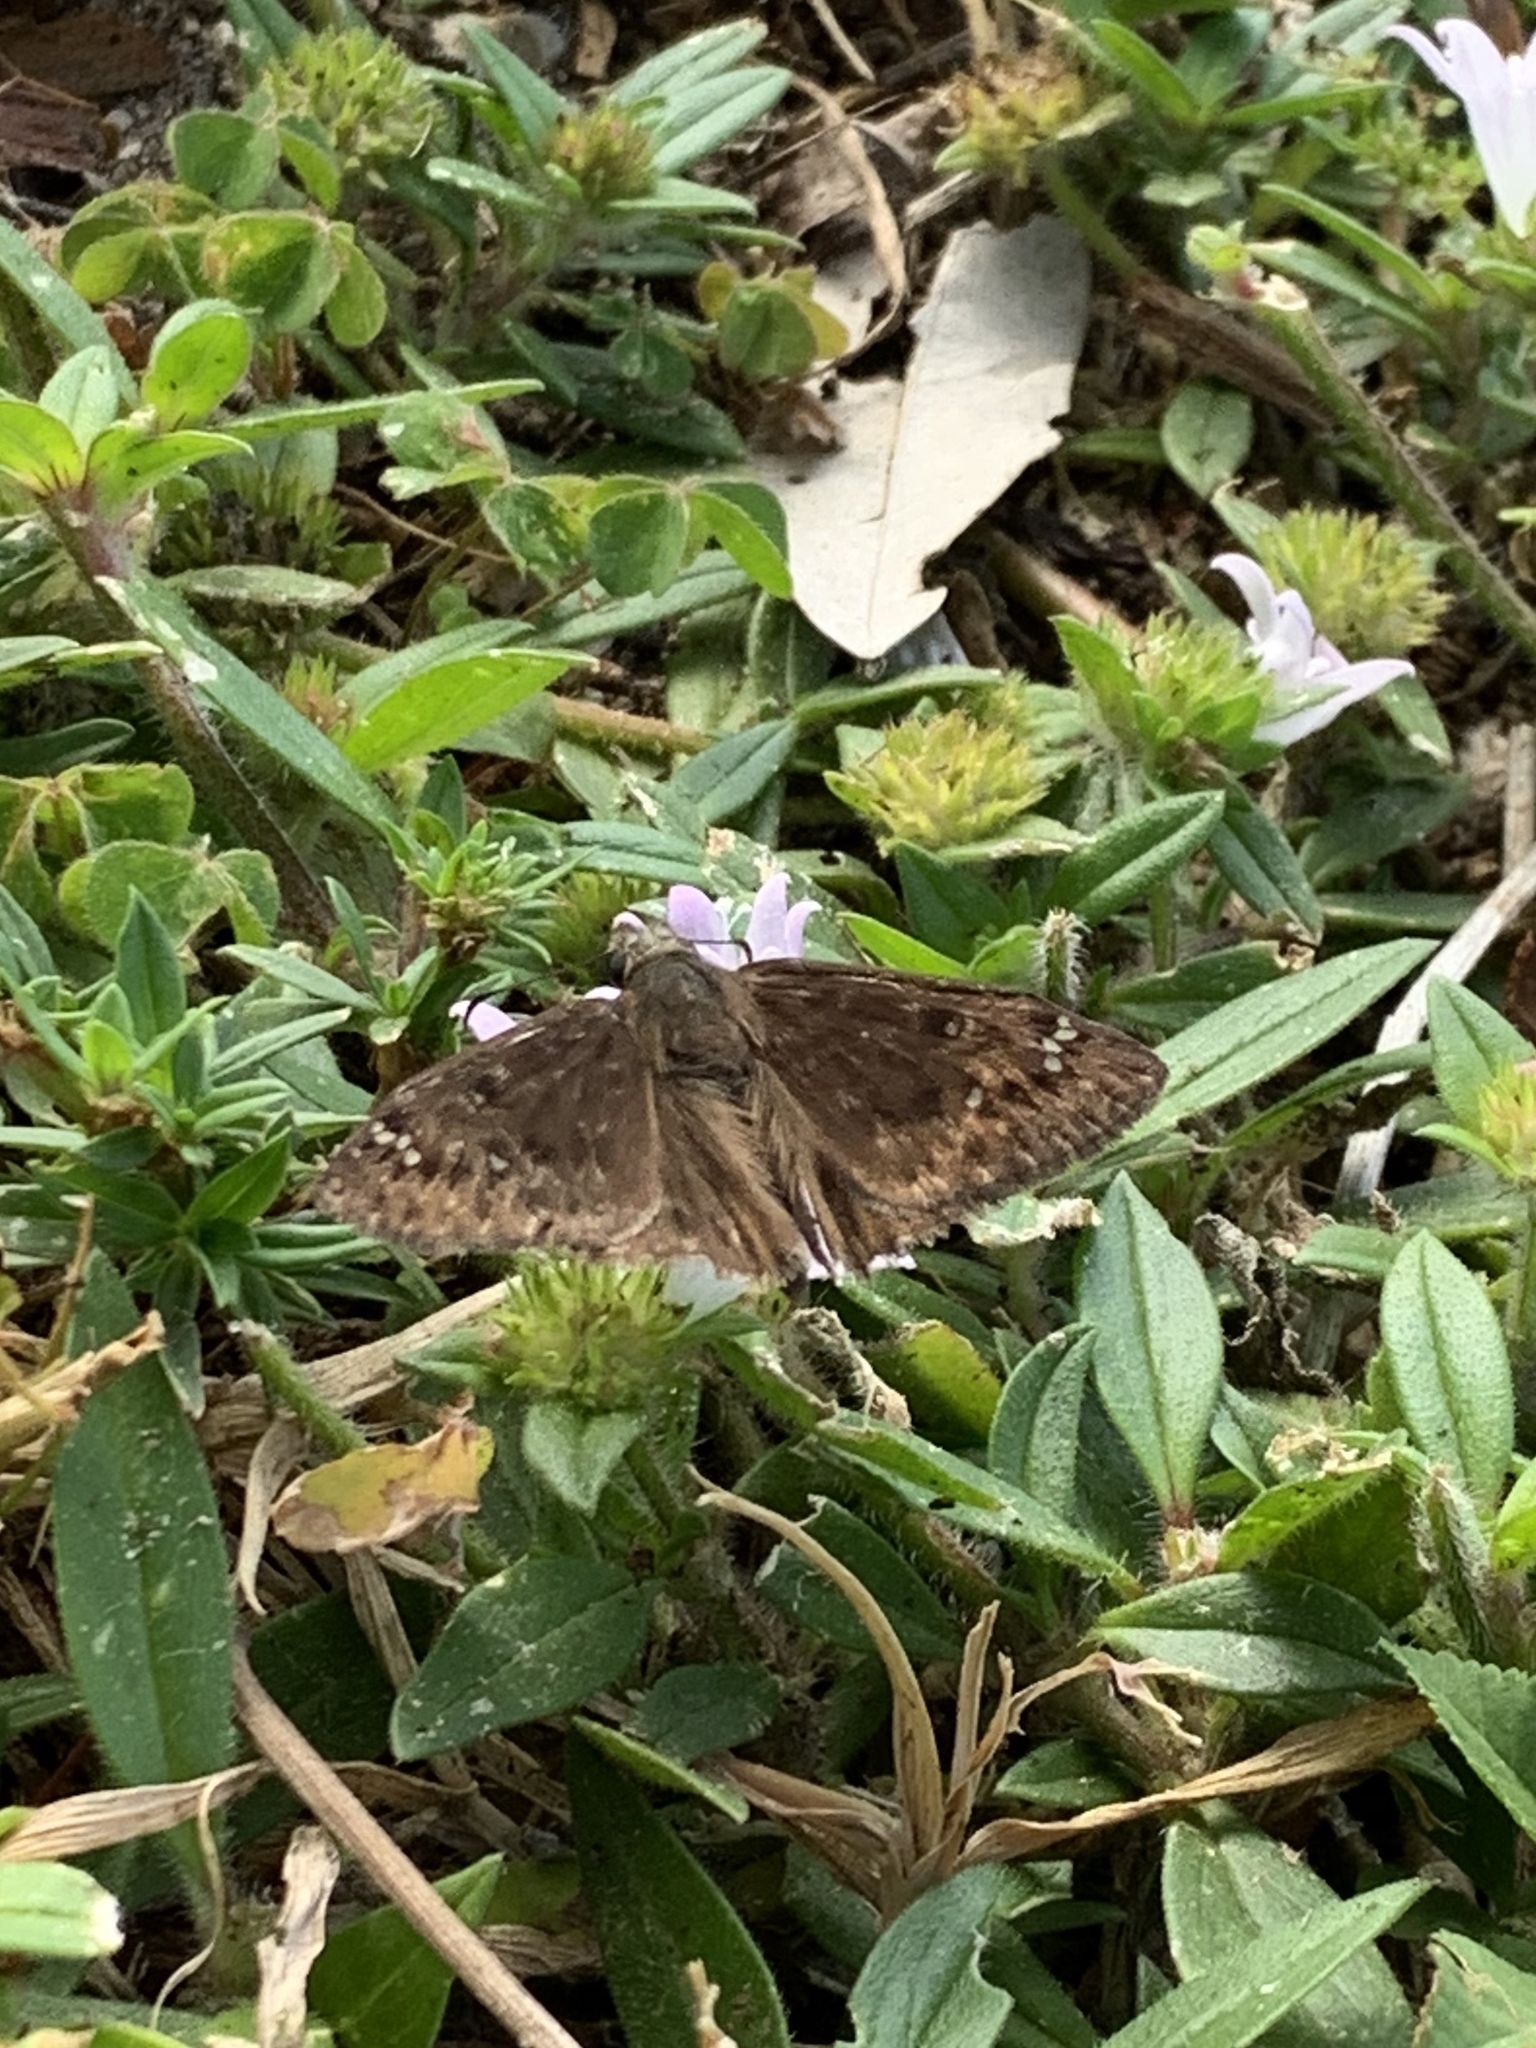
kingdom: Animalia
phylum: Arthropoda
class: Insecta
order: Lepidoptera
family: Hesperiidae
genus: Erynnis
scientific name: Erynnis horatius
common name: Horace's duskywing
